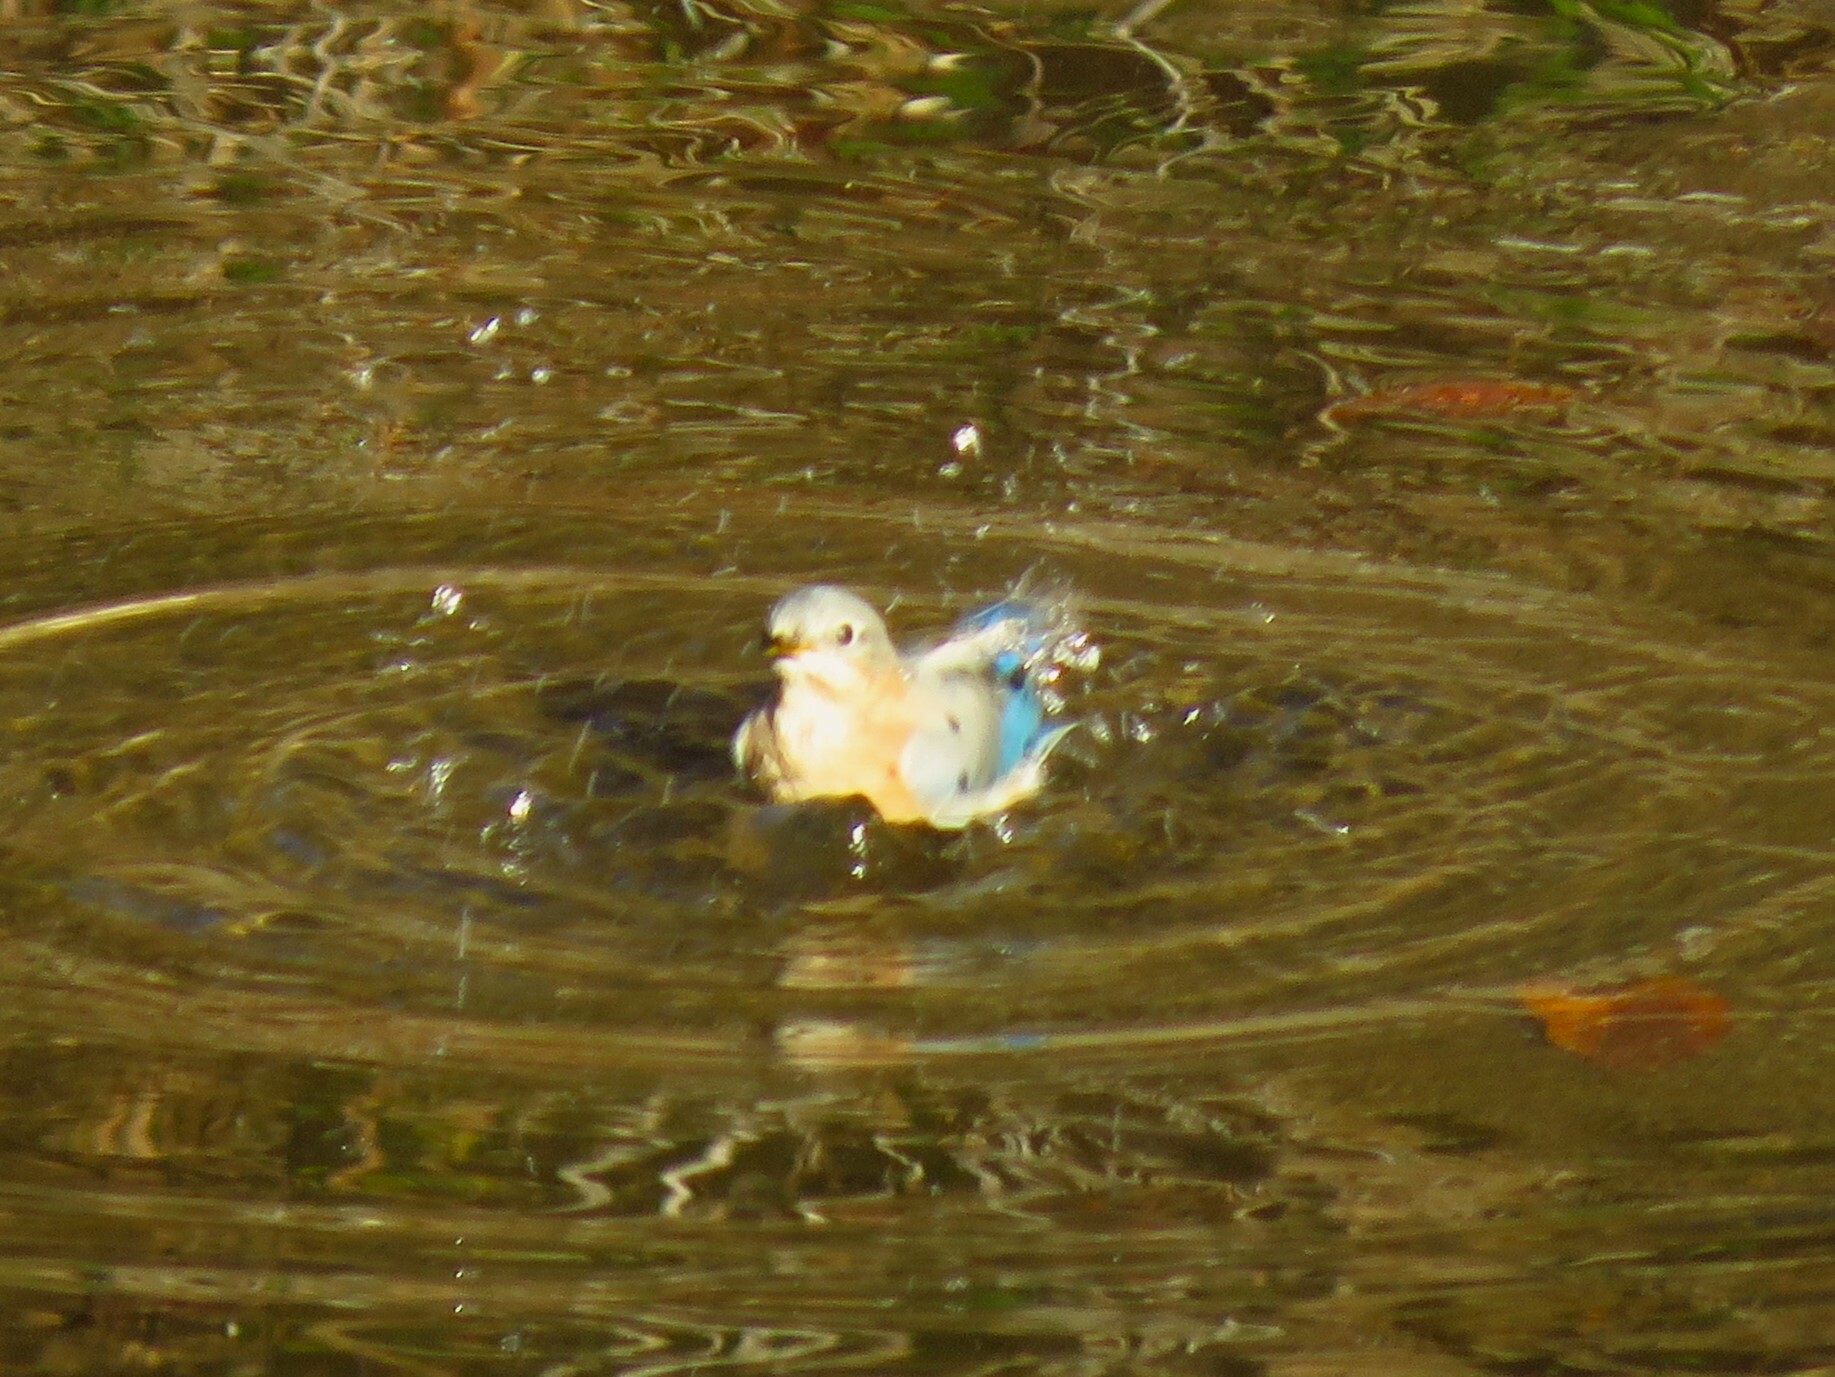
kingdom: Animalia
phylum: Chordata
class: Aves
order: Passeriformes
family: Turdidae
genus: Sialia
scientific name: Sialia sialis
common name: Eastern bluebird
